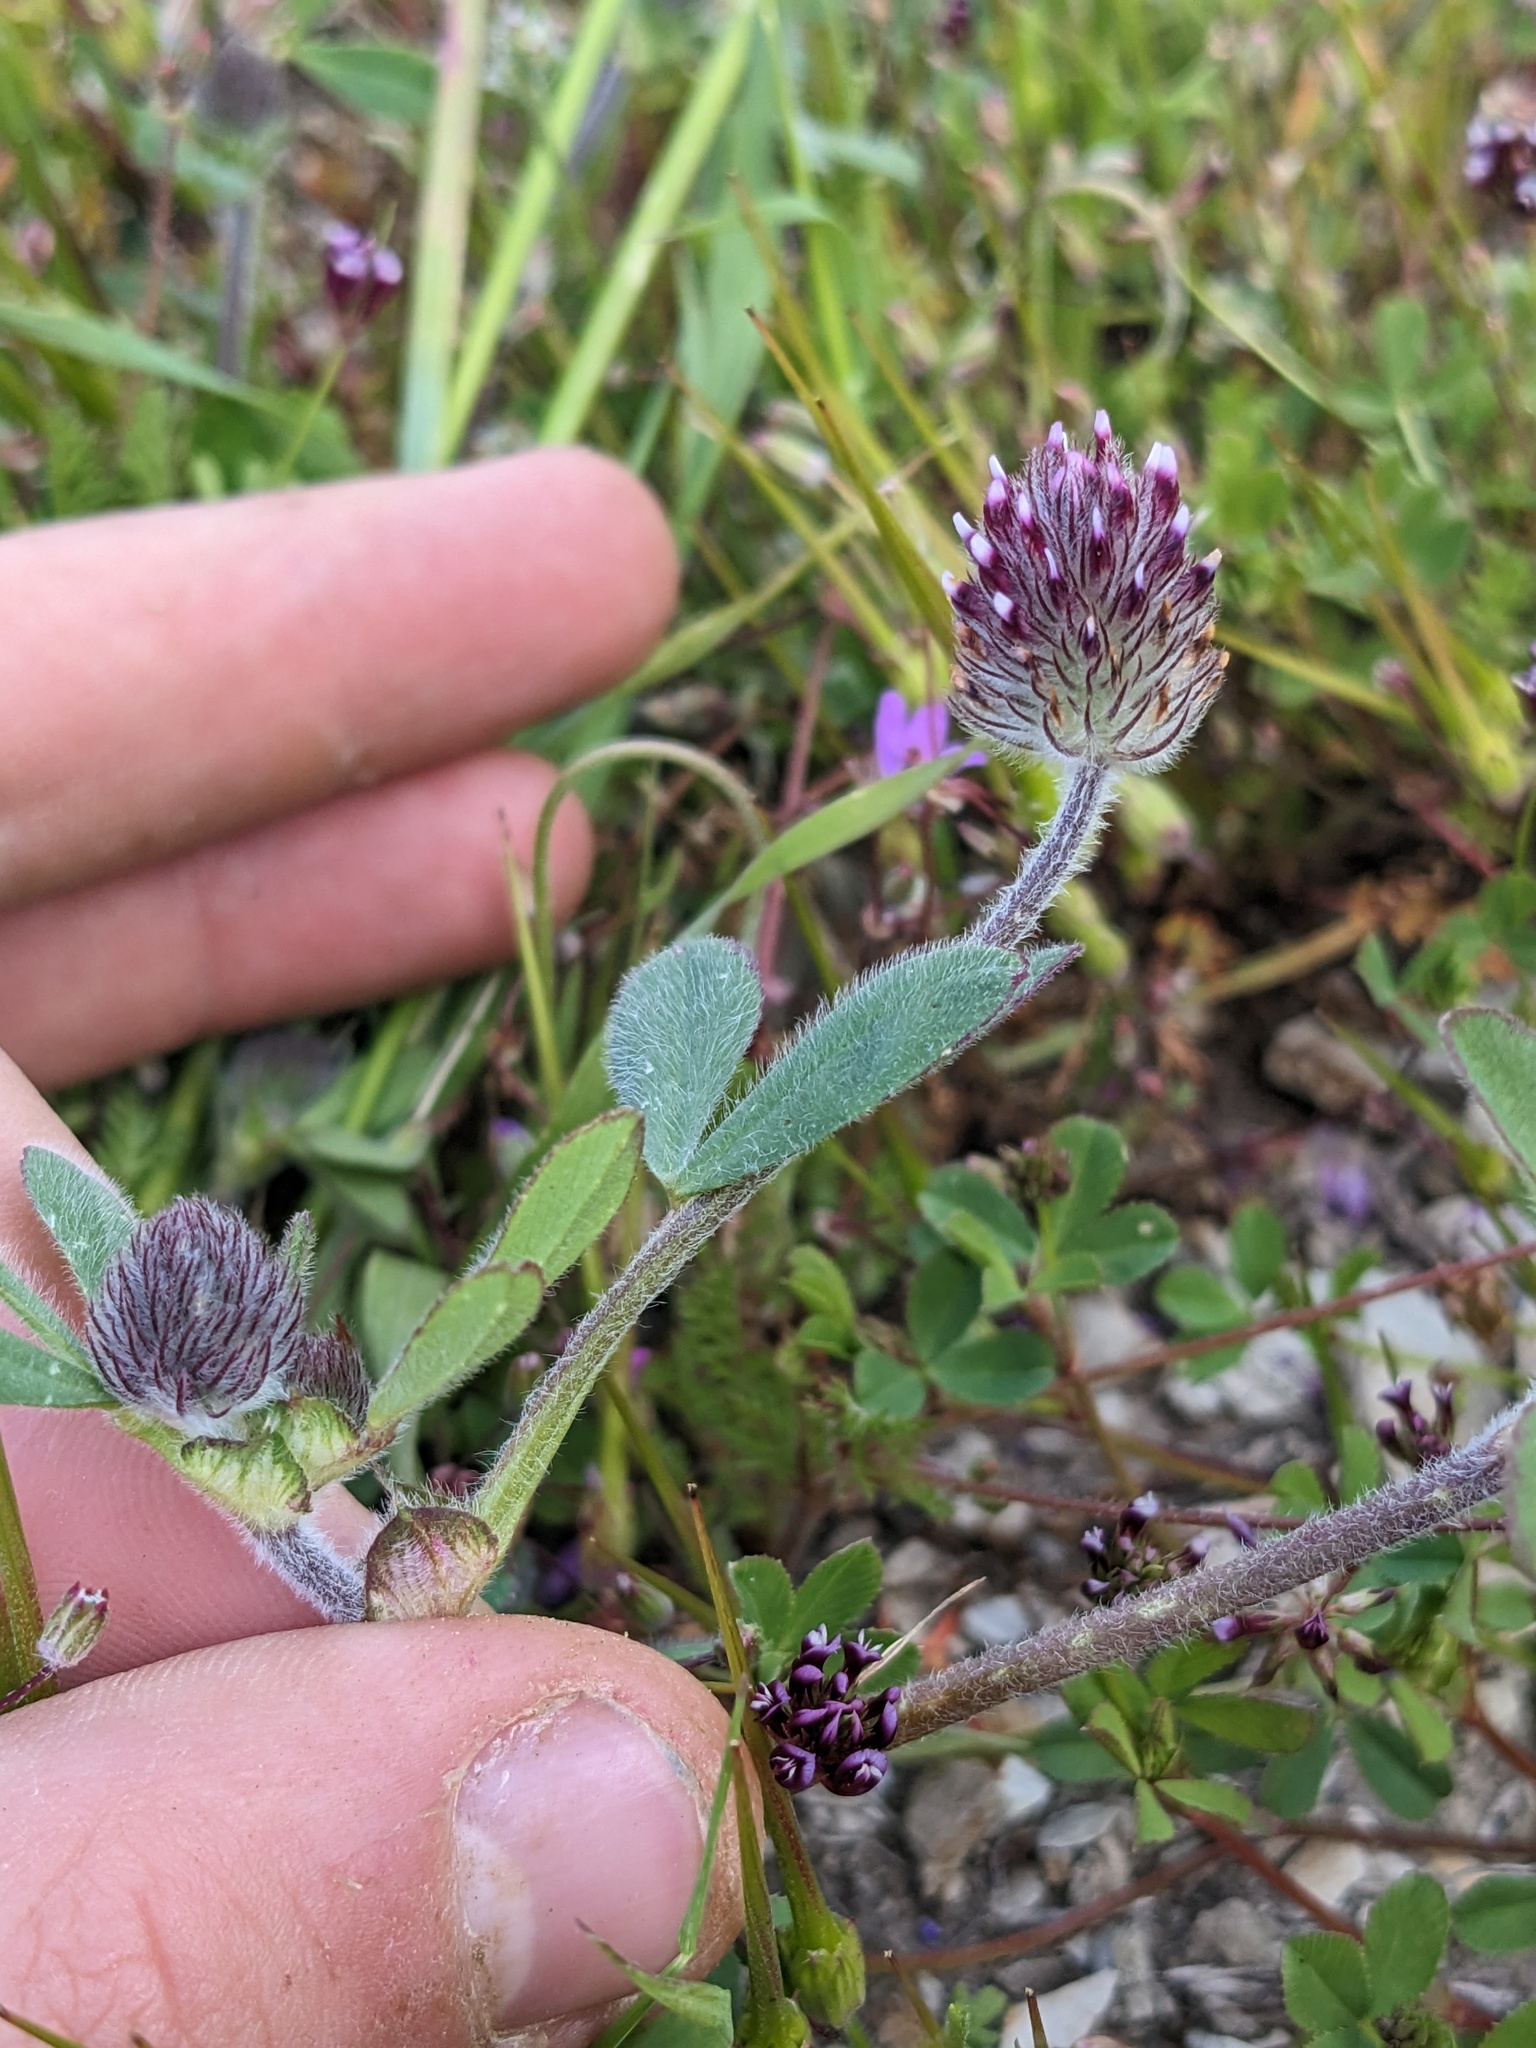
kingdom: Plantae
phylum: Tracheophyta
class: Magnoliopsida
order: Fabales
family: Fabaceae
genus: Trifolium
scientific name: Trifolium albopurpureum
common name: Rancheria clover
